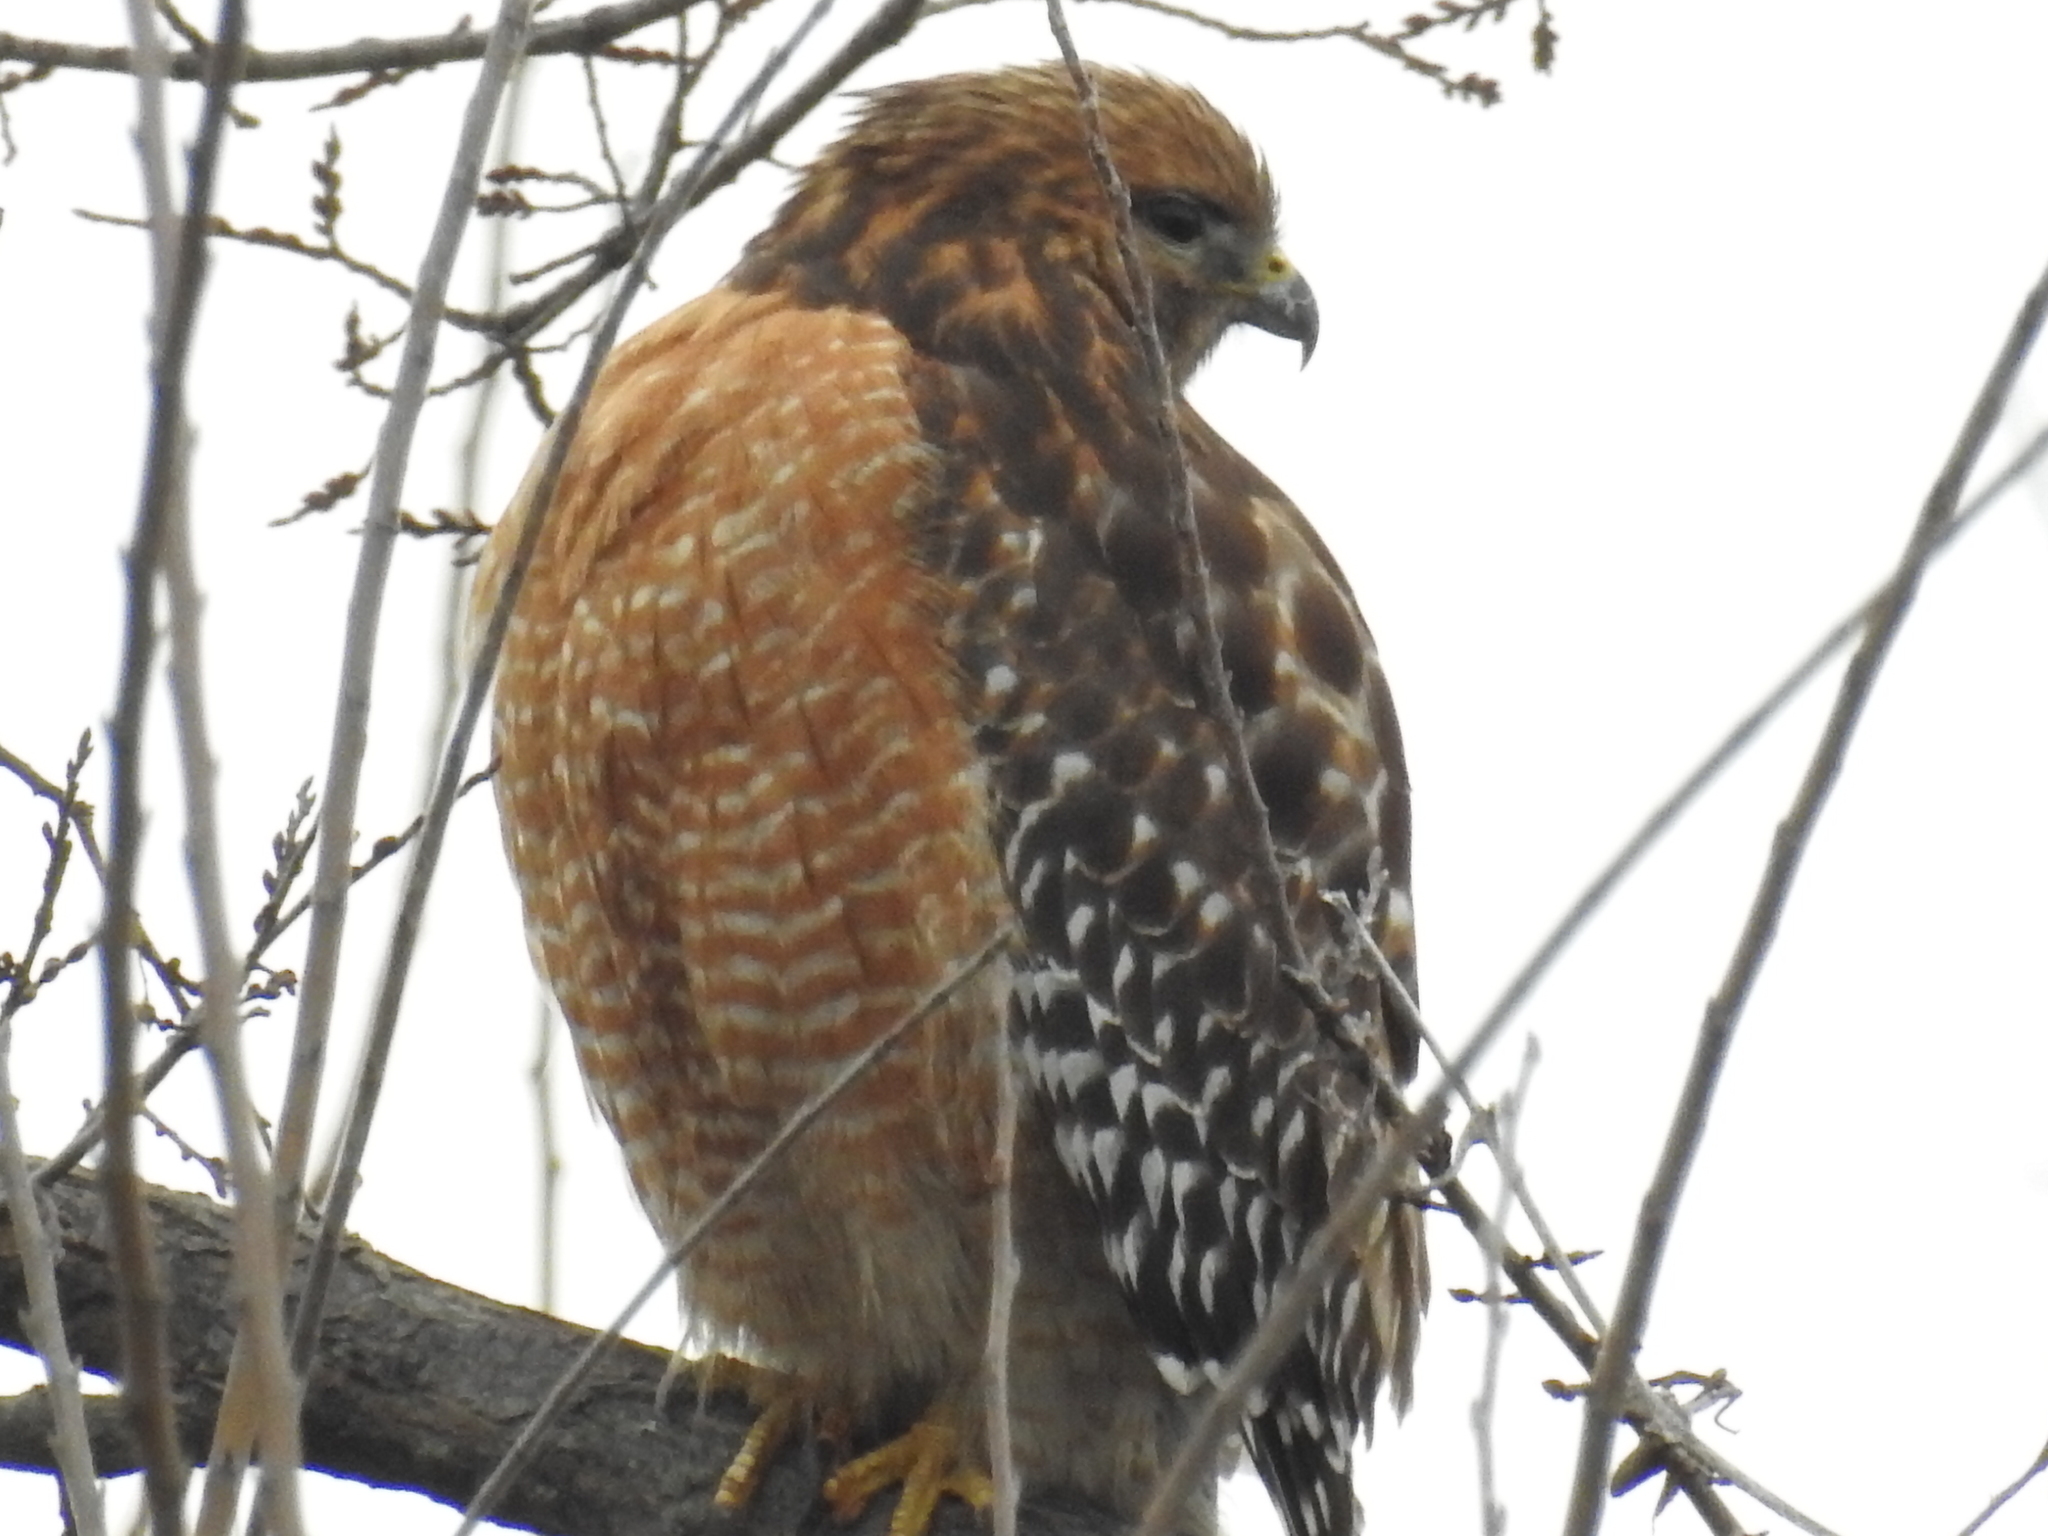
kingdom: Animalia
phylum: Chordata
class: Aves
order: Accipitriformes
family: Accipitridae
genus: Buteo
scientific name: Buteo lineatus
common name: Red-shouldered hawk
